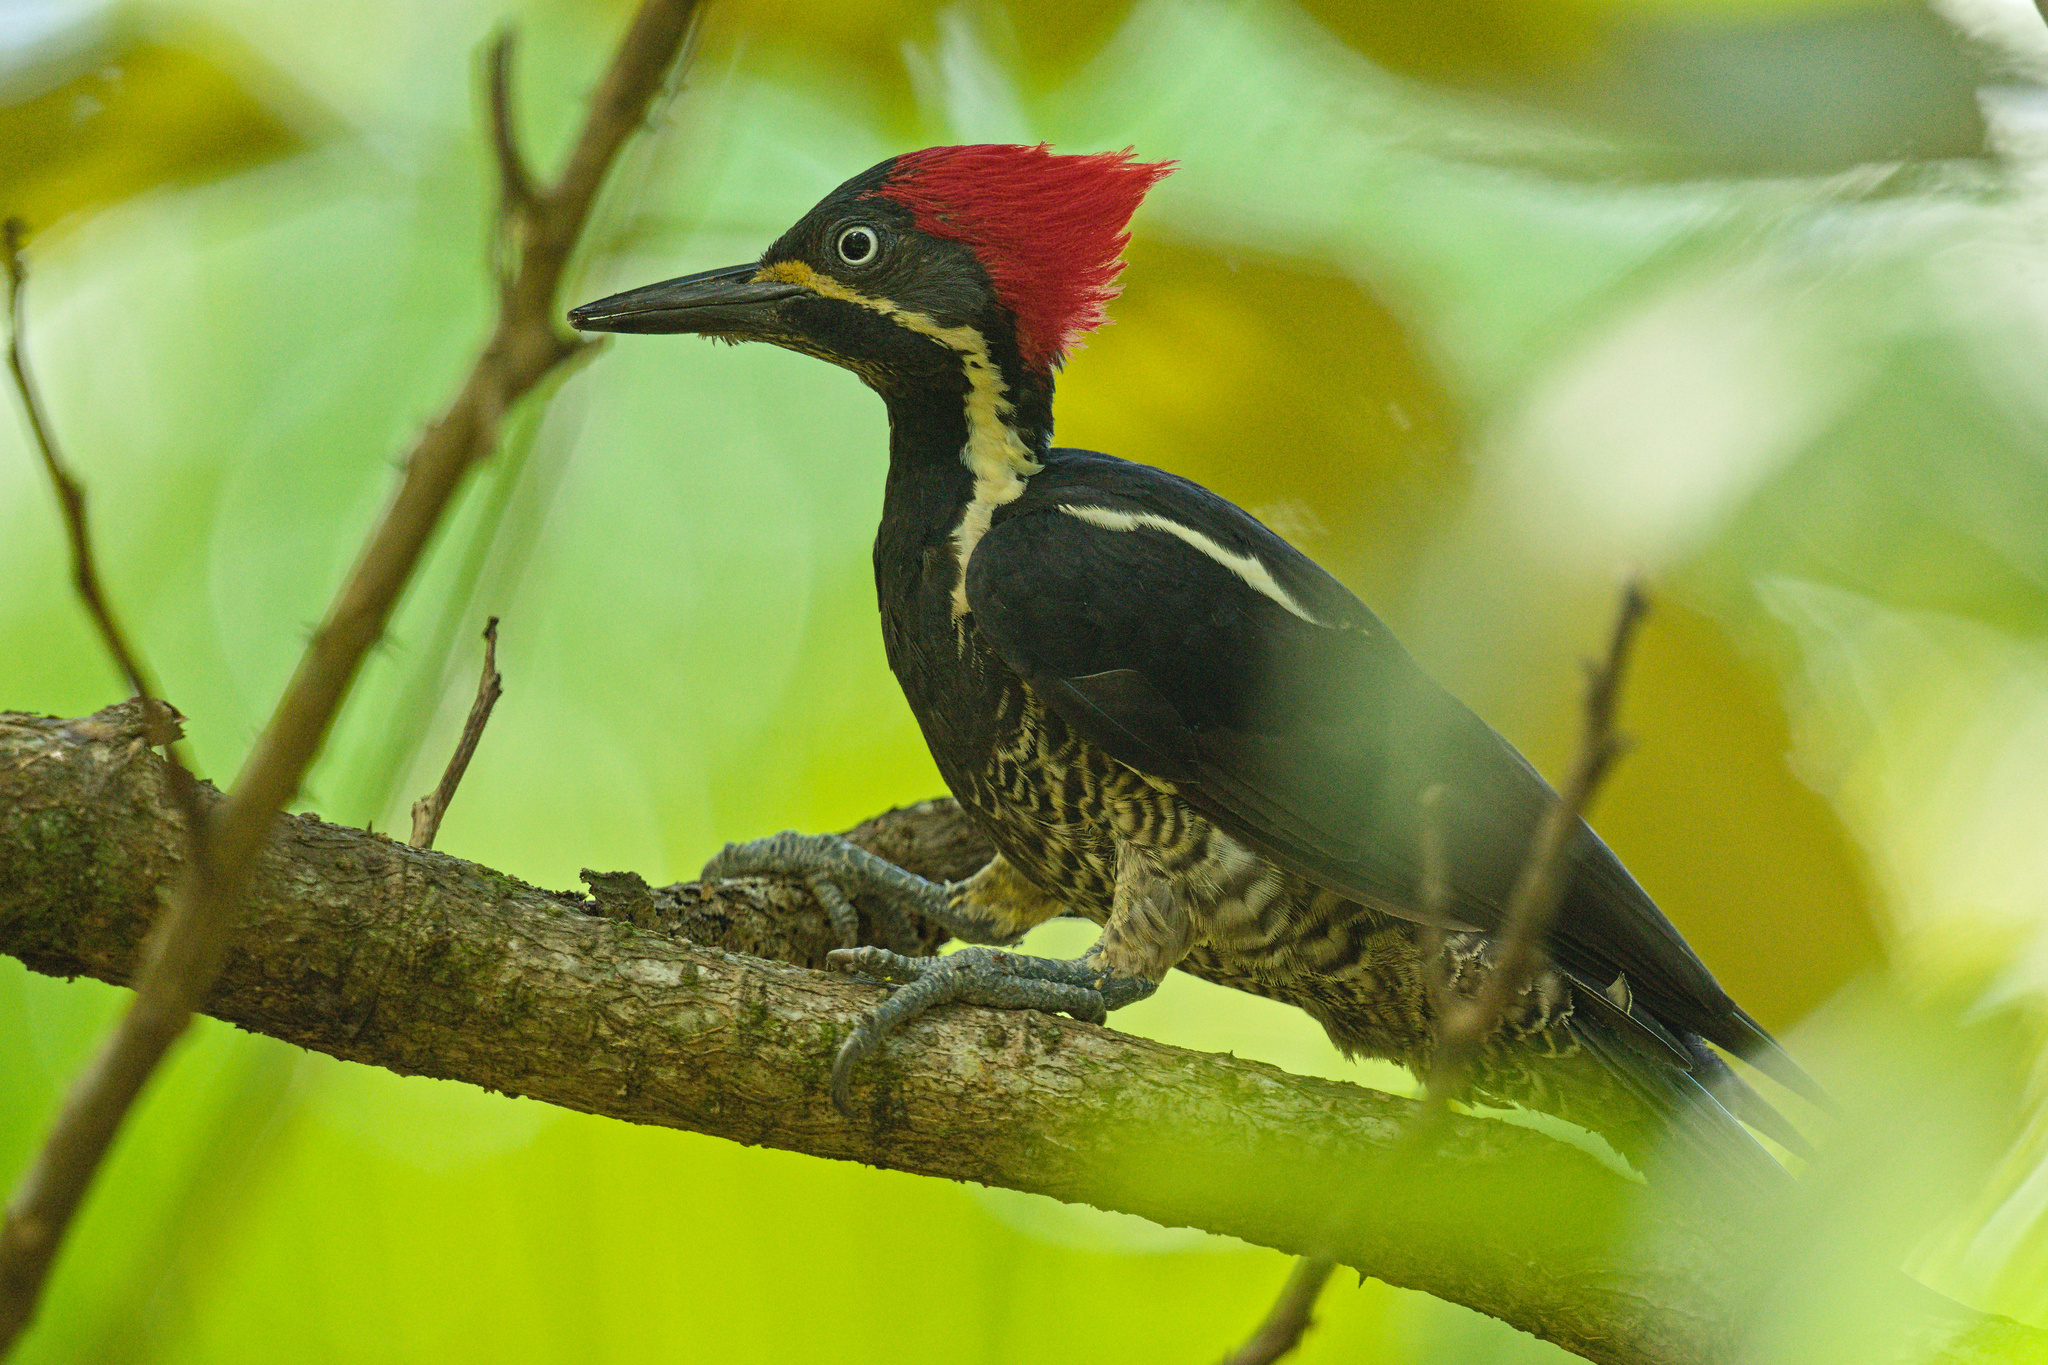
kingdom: Animalia
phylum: Chordata
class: Aves
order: Piciformes
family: Picidae
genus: Dryocopus
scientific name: Dryocopus lineatus
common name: Lineated woodpecker
